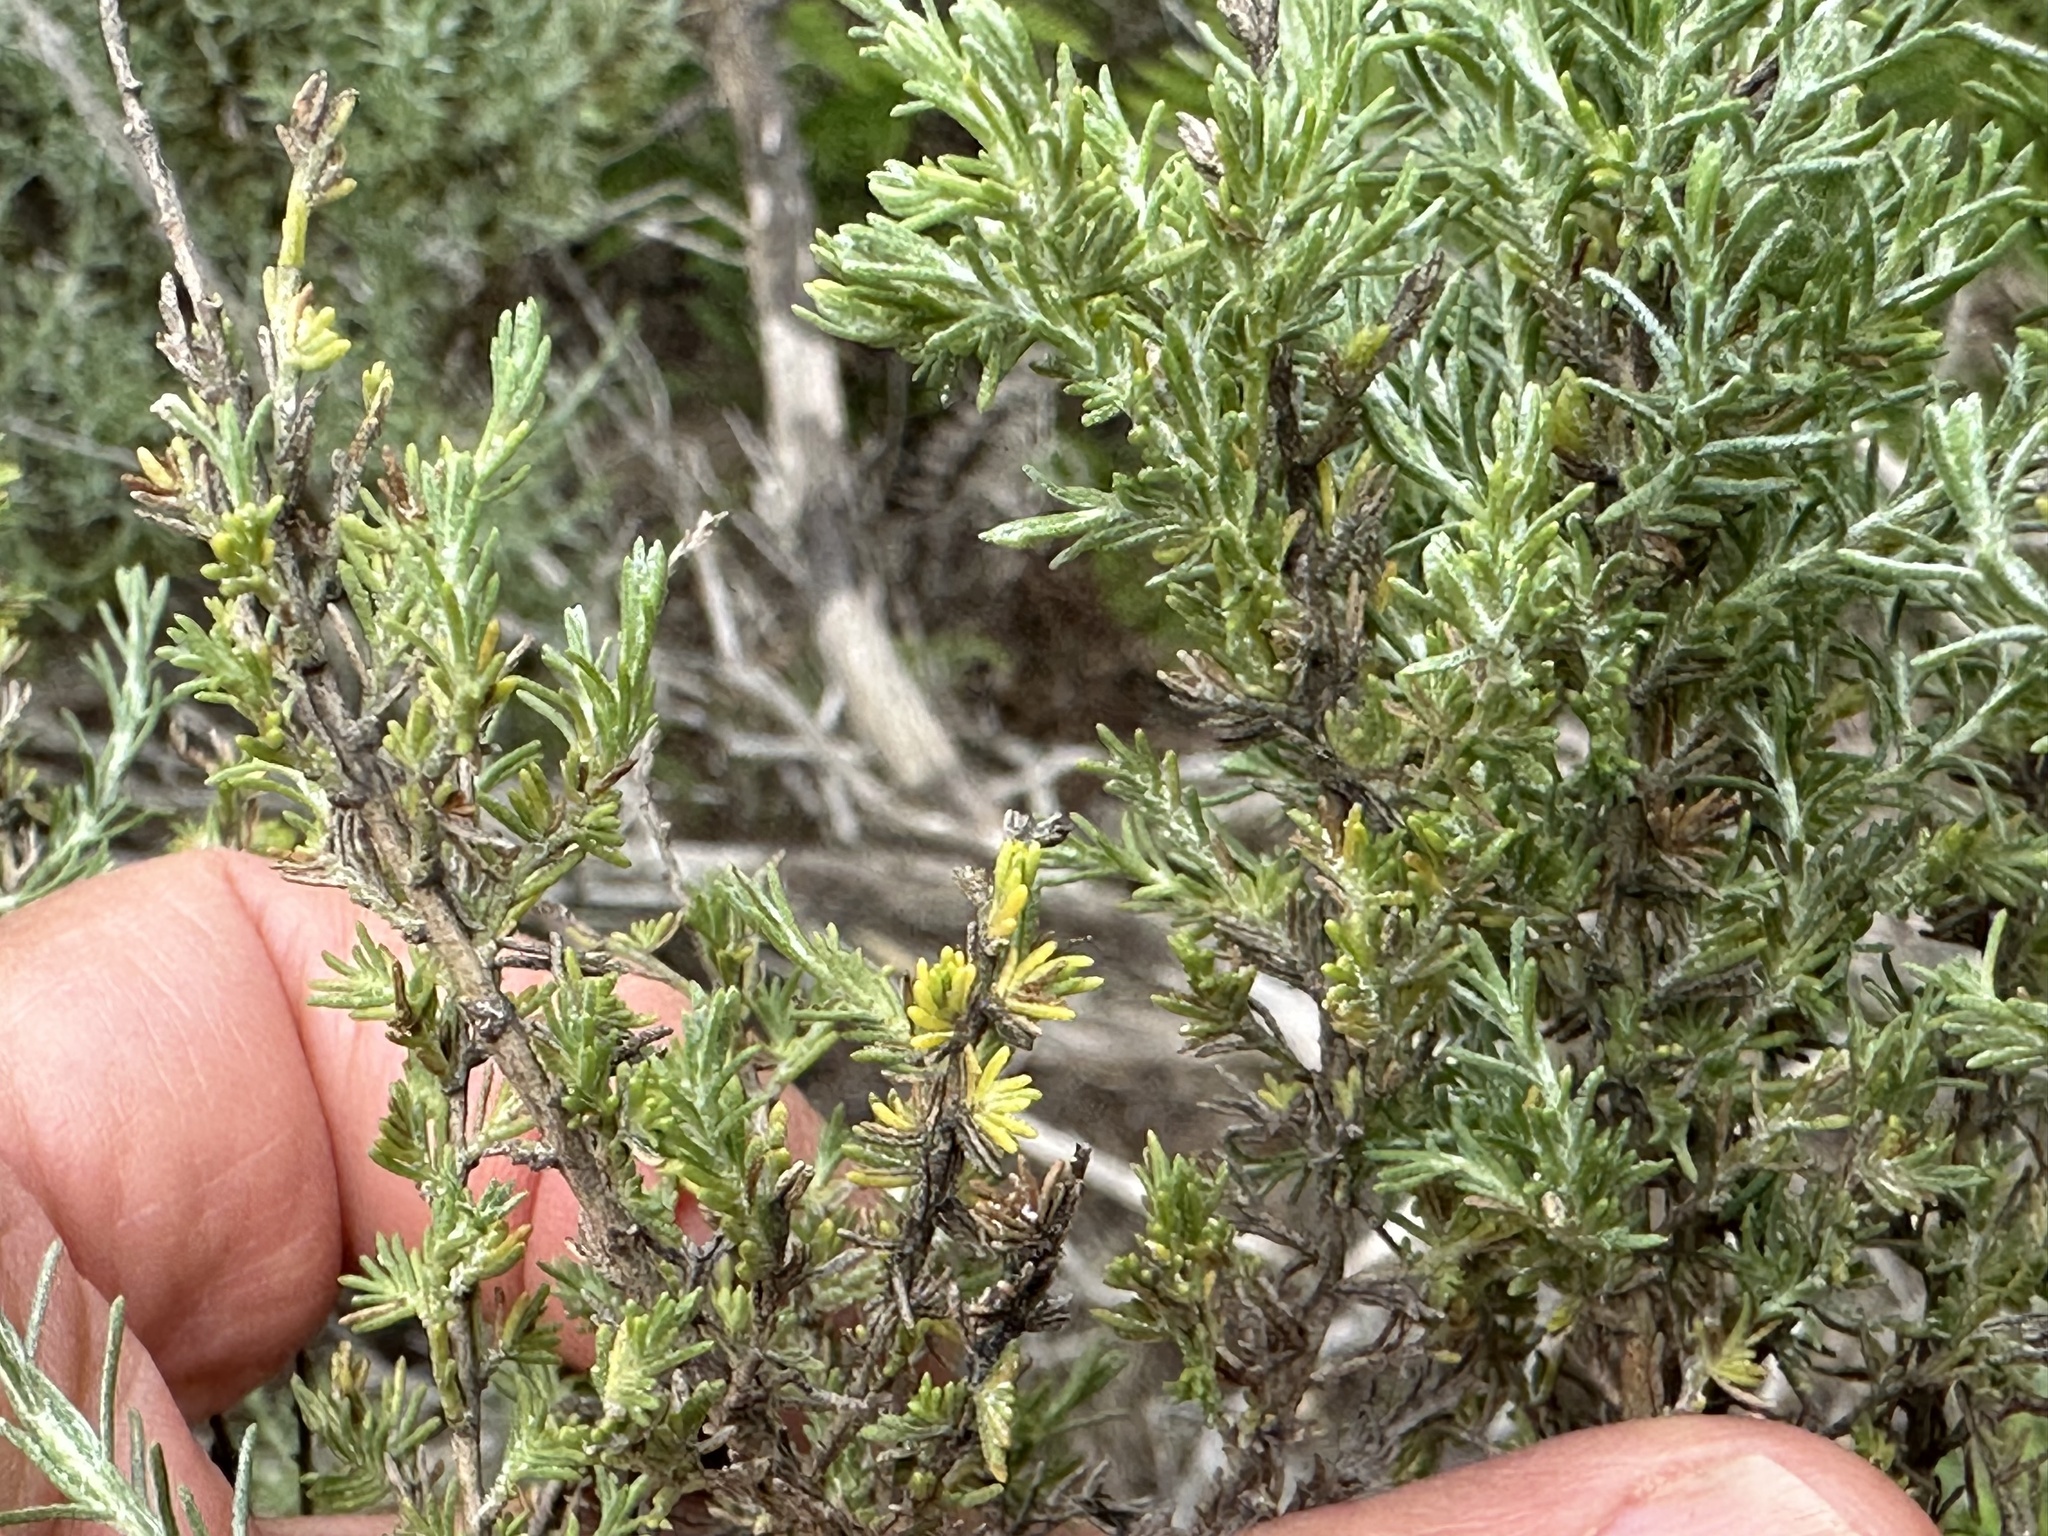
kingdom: Plantae
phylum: Tracheophyta
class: Magnoliopsida
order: Asterales
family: Asteraceae
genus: Ericameria
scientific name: Ericameria ericoides
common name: California goldenbush
